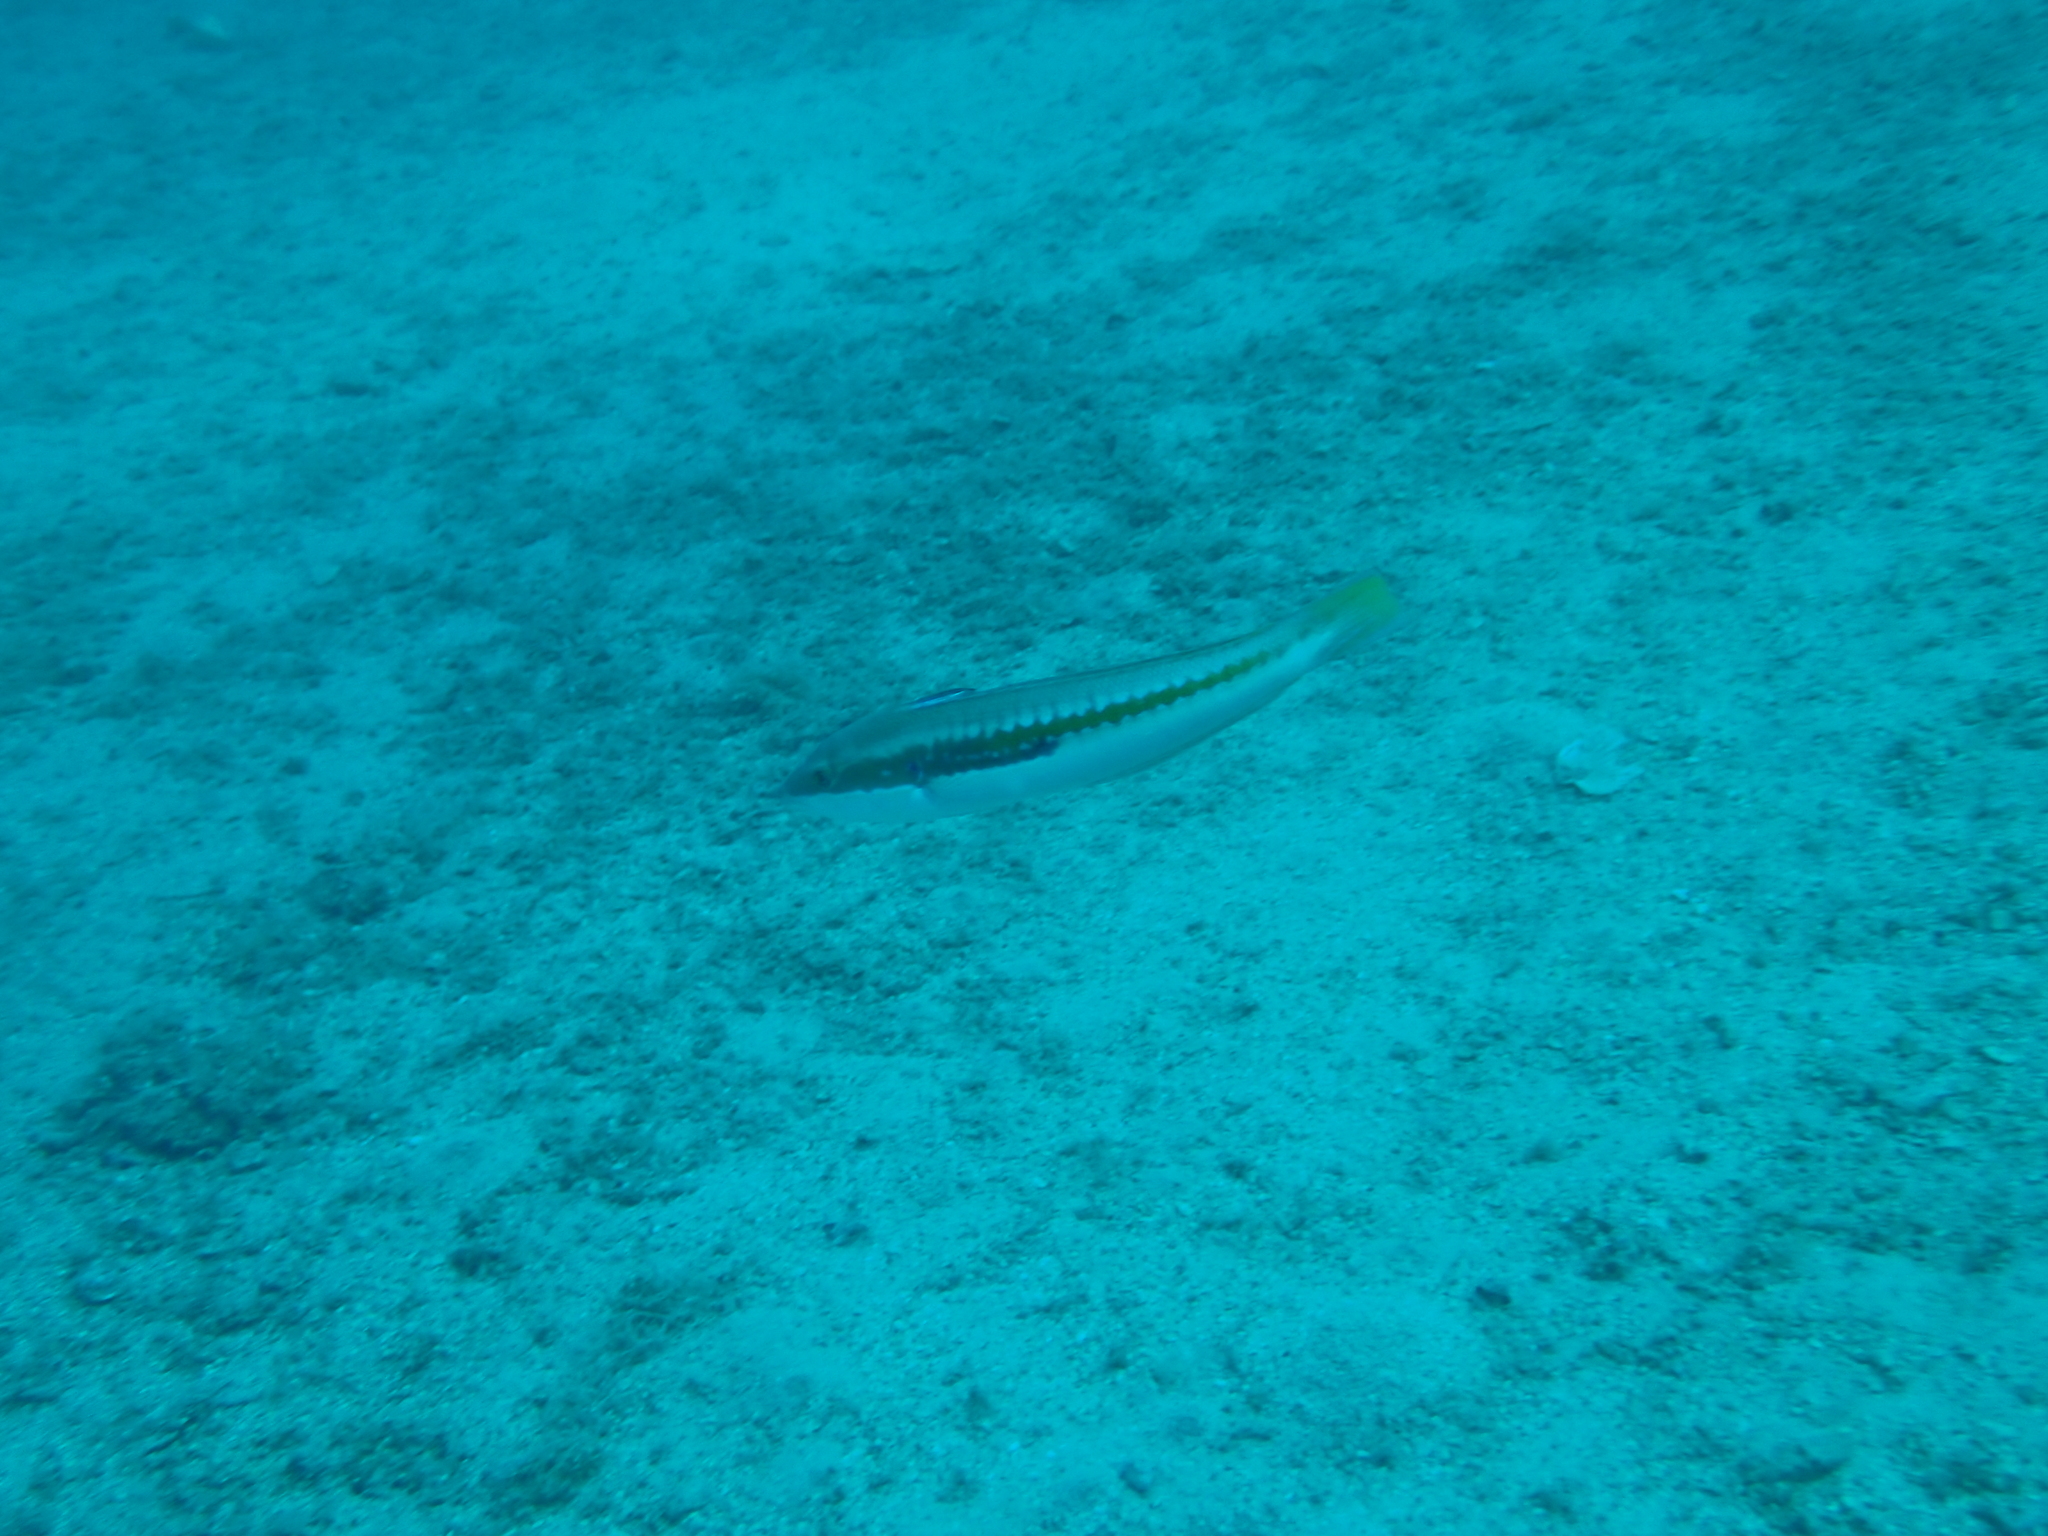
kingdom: Animalia
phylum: Chordata
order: Perciformes
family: Labridae
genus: Coris
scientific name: Coris julis
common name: Rainbow wrasse
